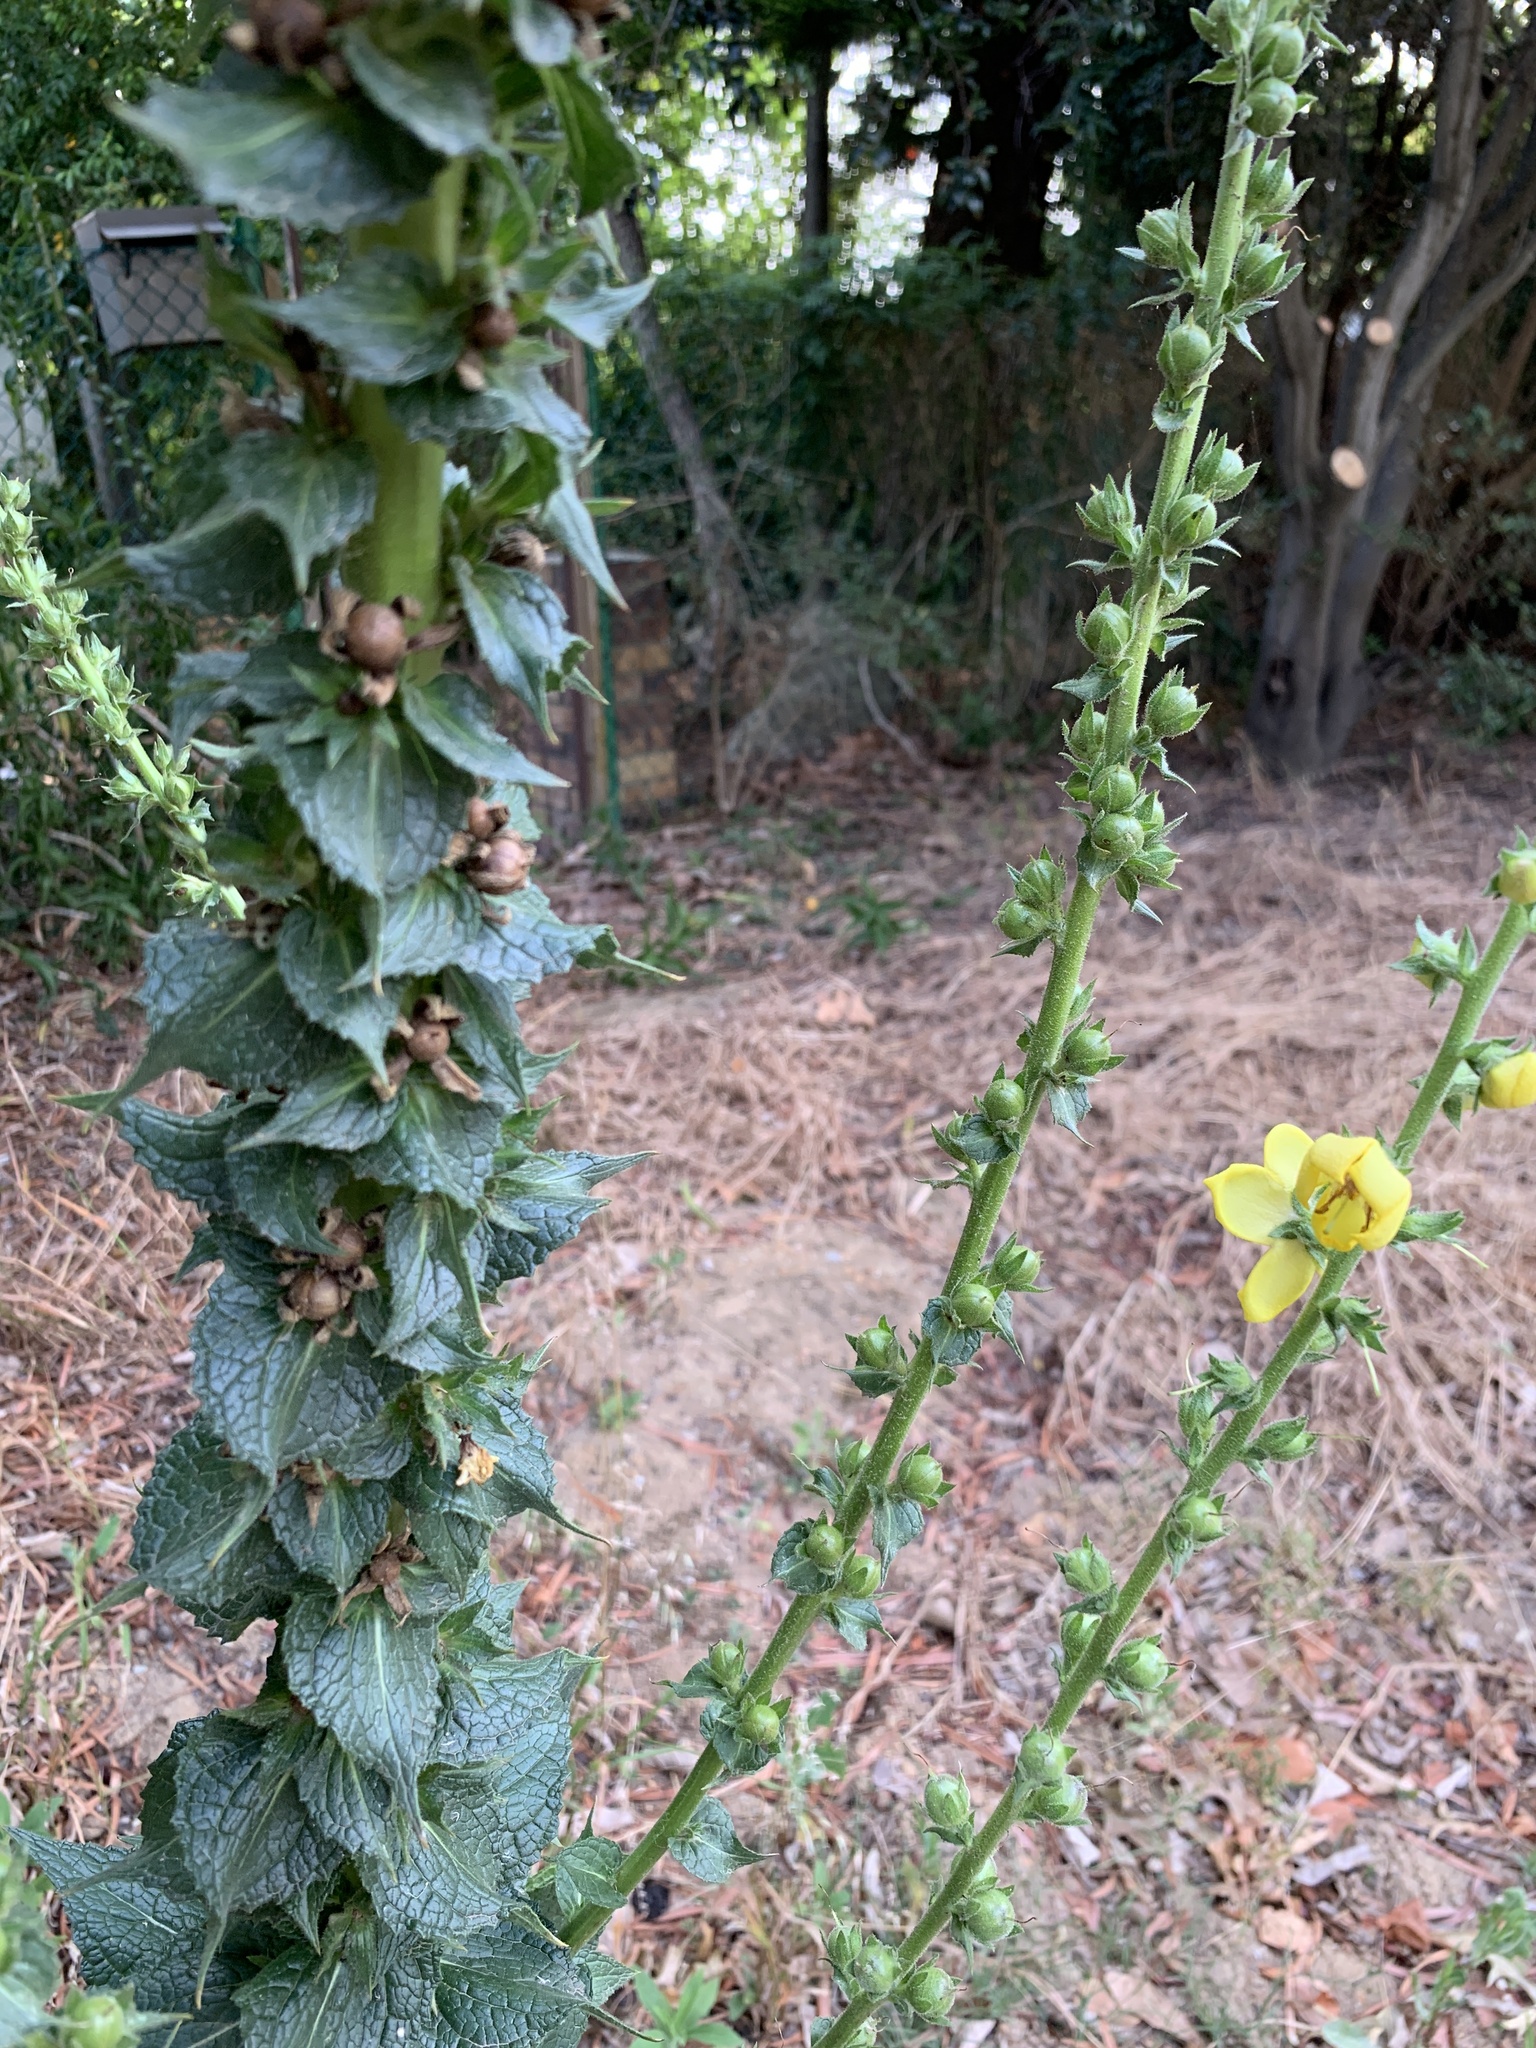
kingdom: Plantae
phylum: Tracheophyta
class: Magnoliopsida
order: Lamiales
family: Scrophulariaceae
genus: Verbascum
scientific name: Verbascum virgatum
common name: Twiggy mullein
